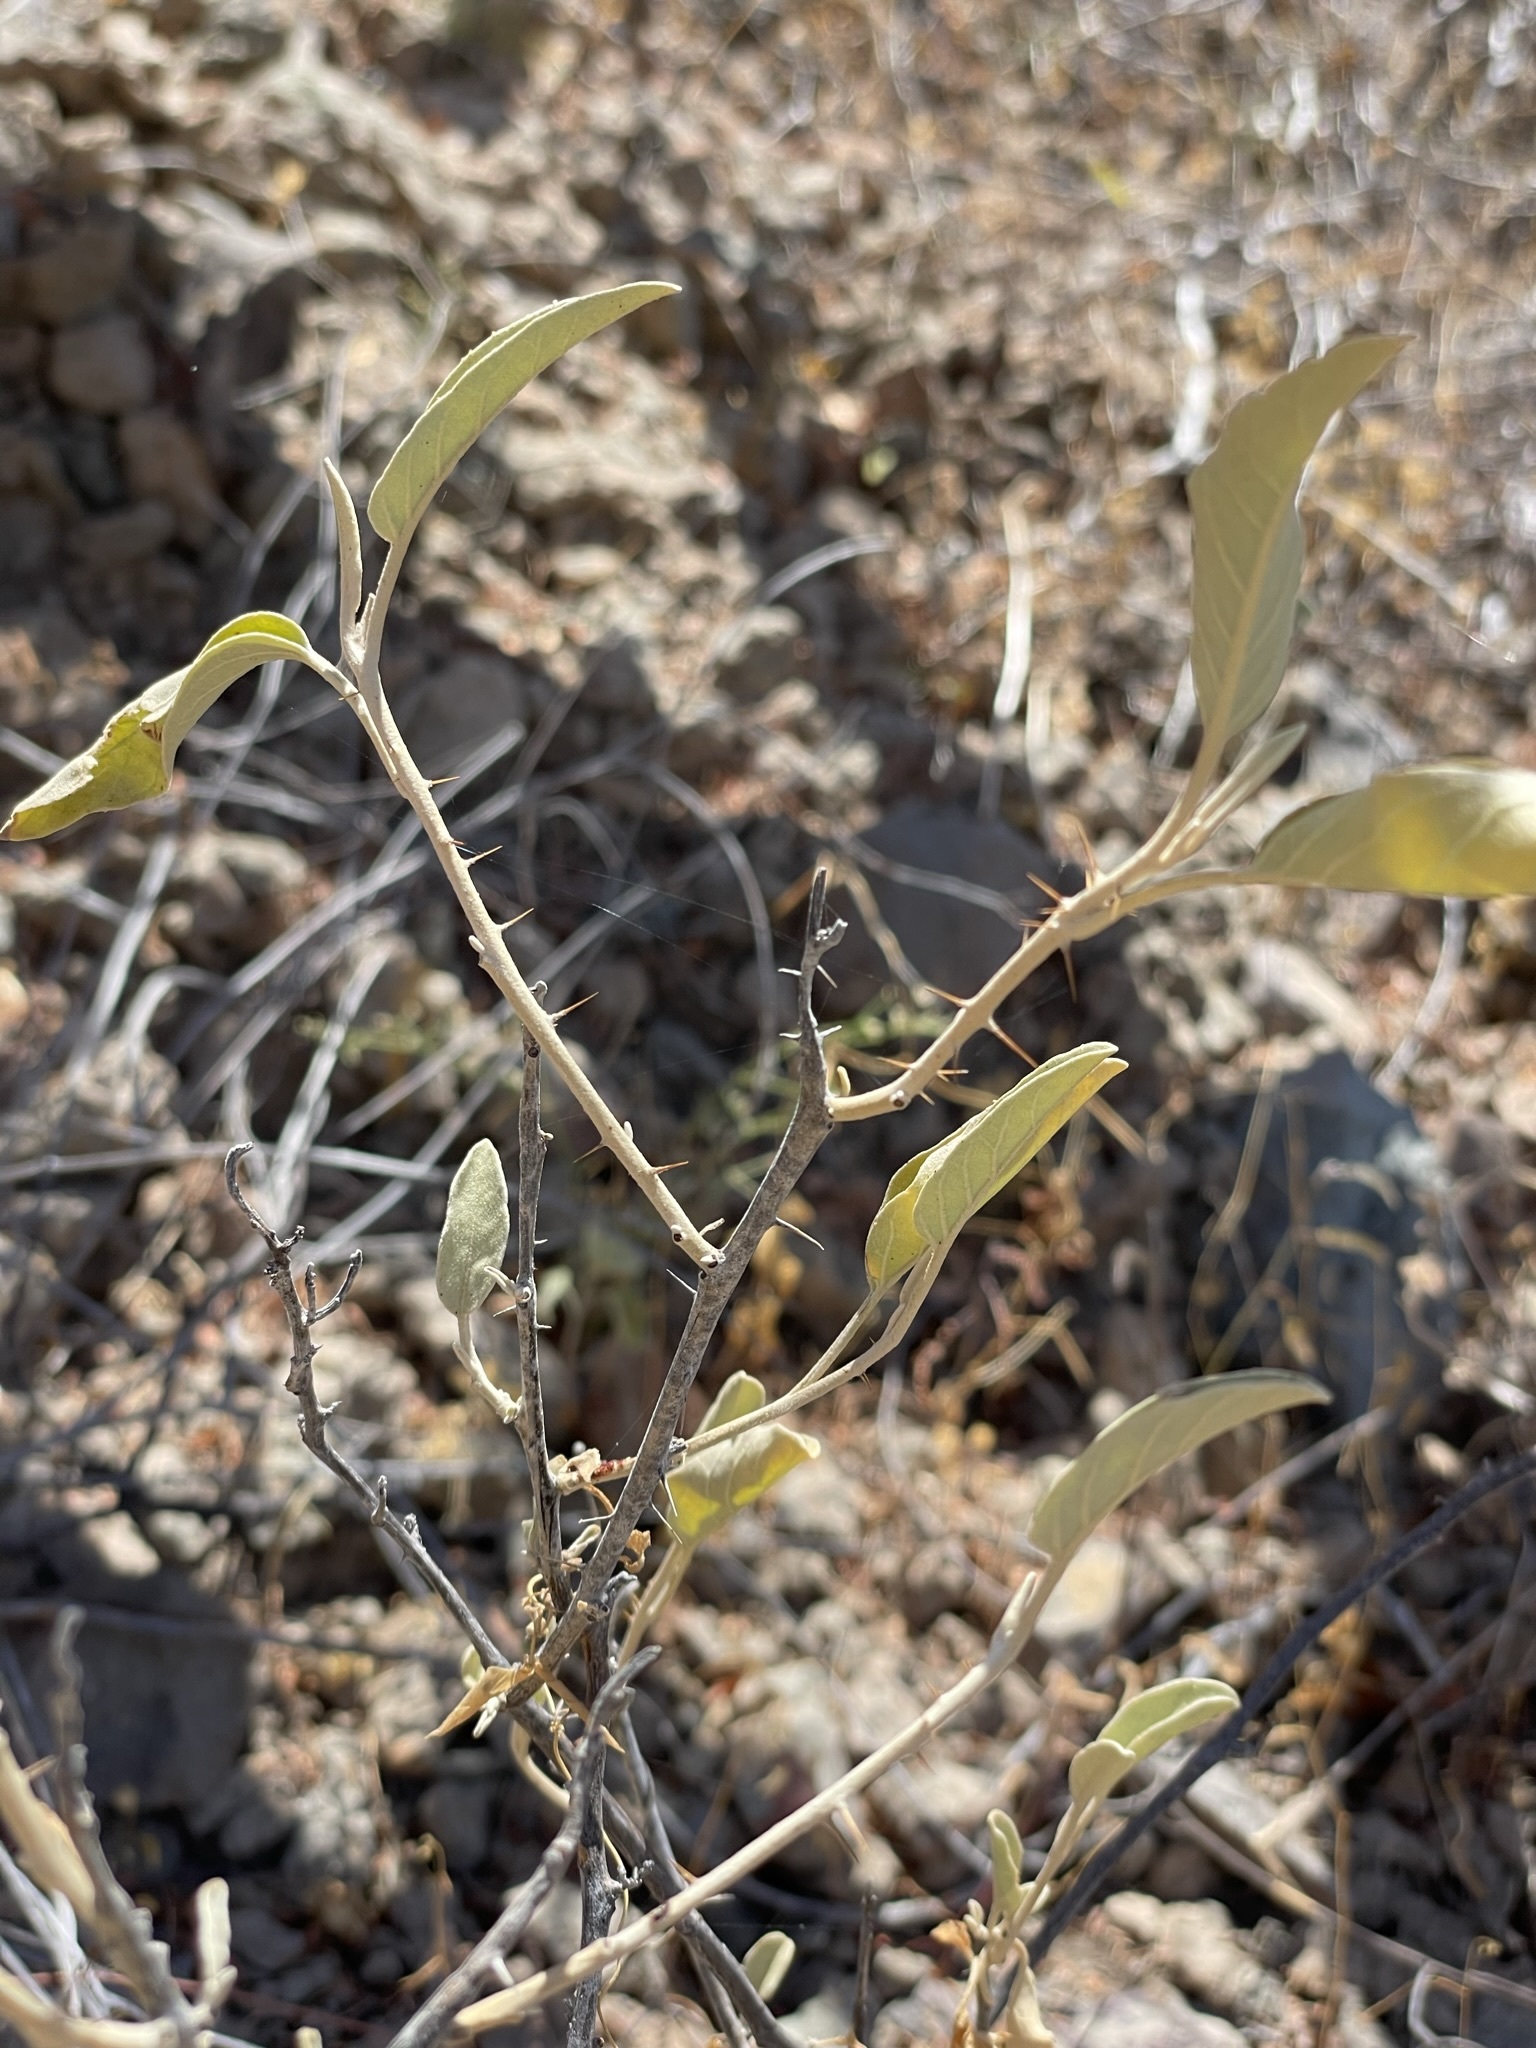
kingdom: Plantae
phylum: Tracheophyta
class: Magnoliopsida
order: Solanales
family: Solanaceae
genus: Solanum
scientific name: Solanum hindsianum
